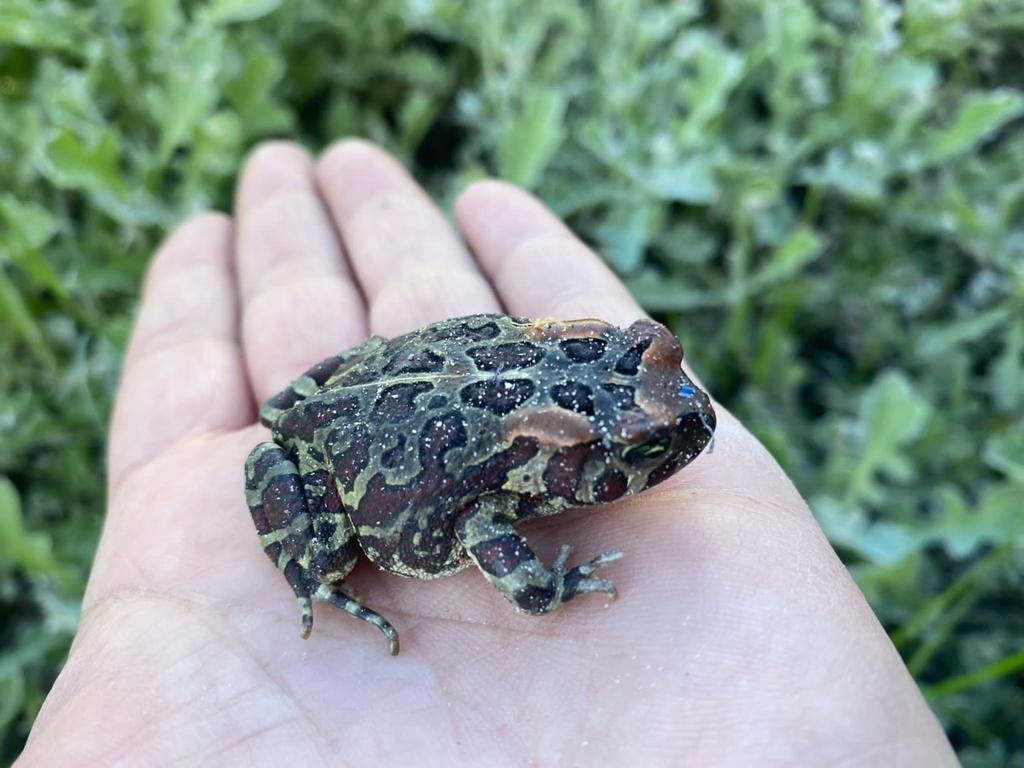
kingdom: Animalia
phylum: Chordata
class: Amphibia
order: Anura
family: Bufonidae
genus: Sclerophrys
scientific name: Sclerophrys pantherina
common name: Panther toad
